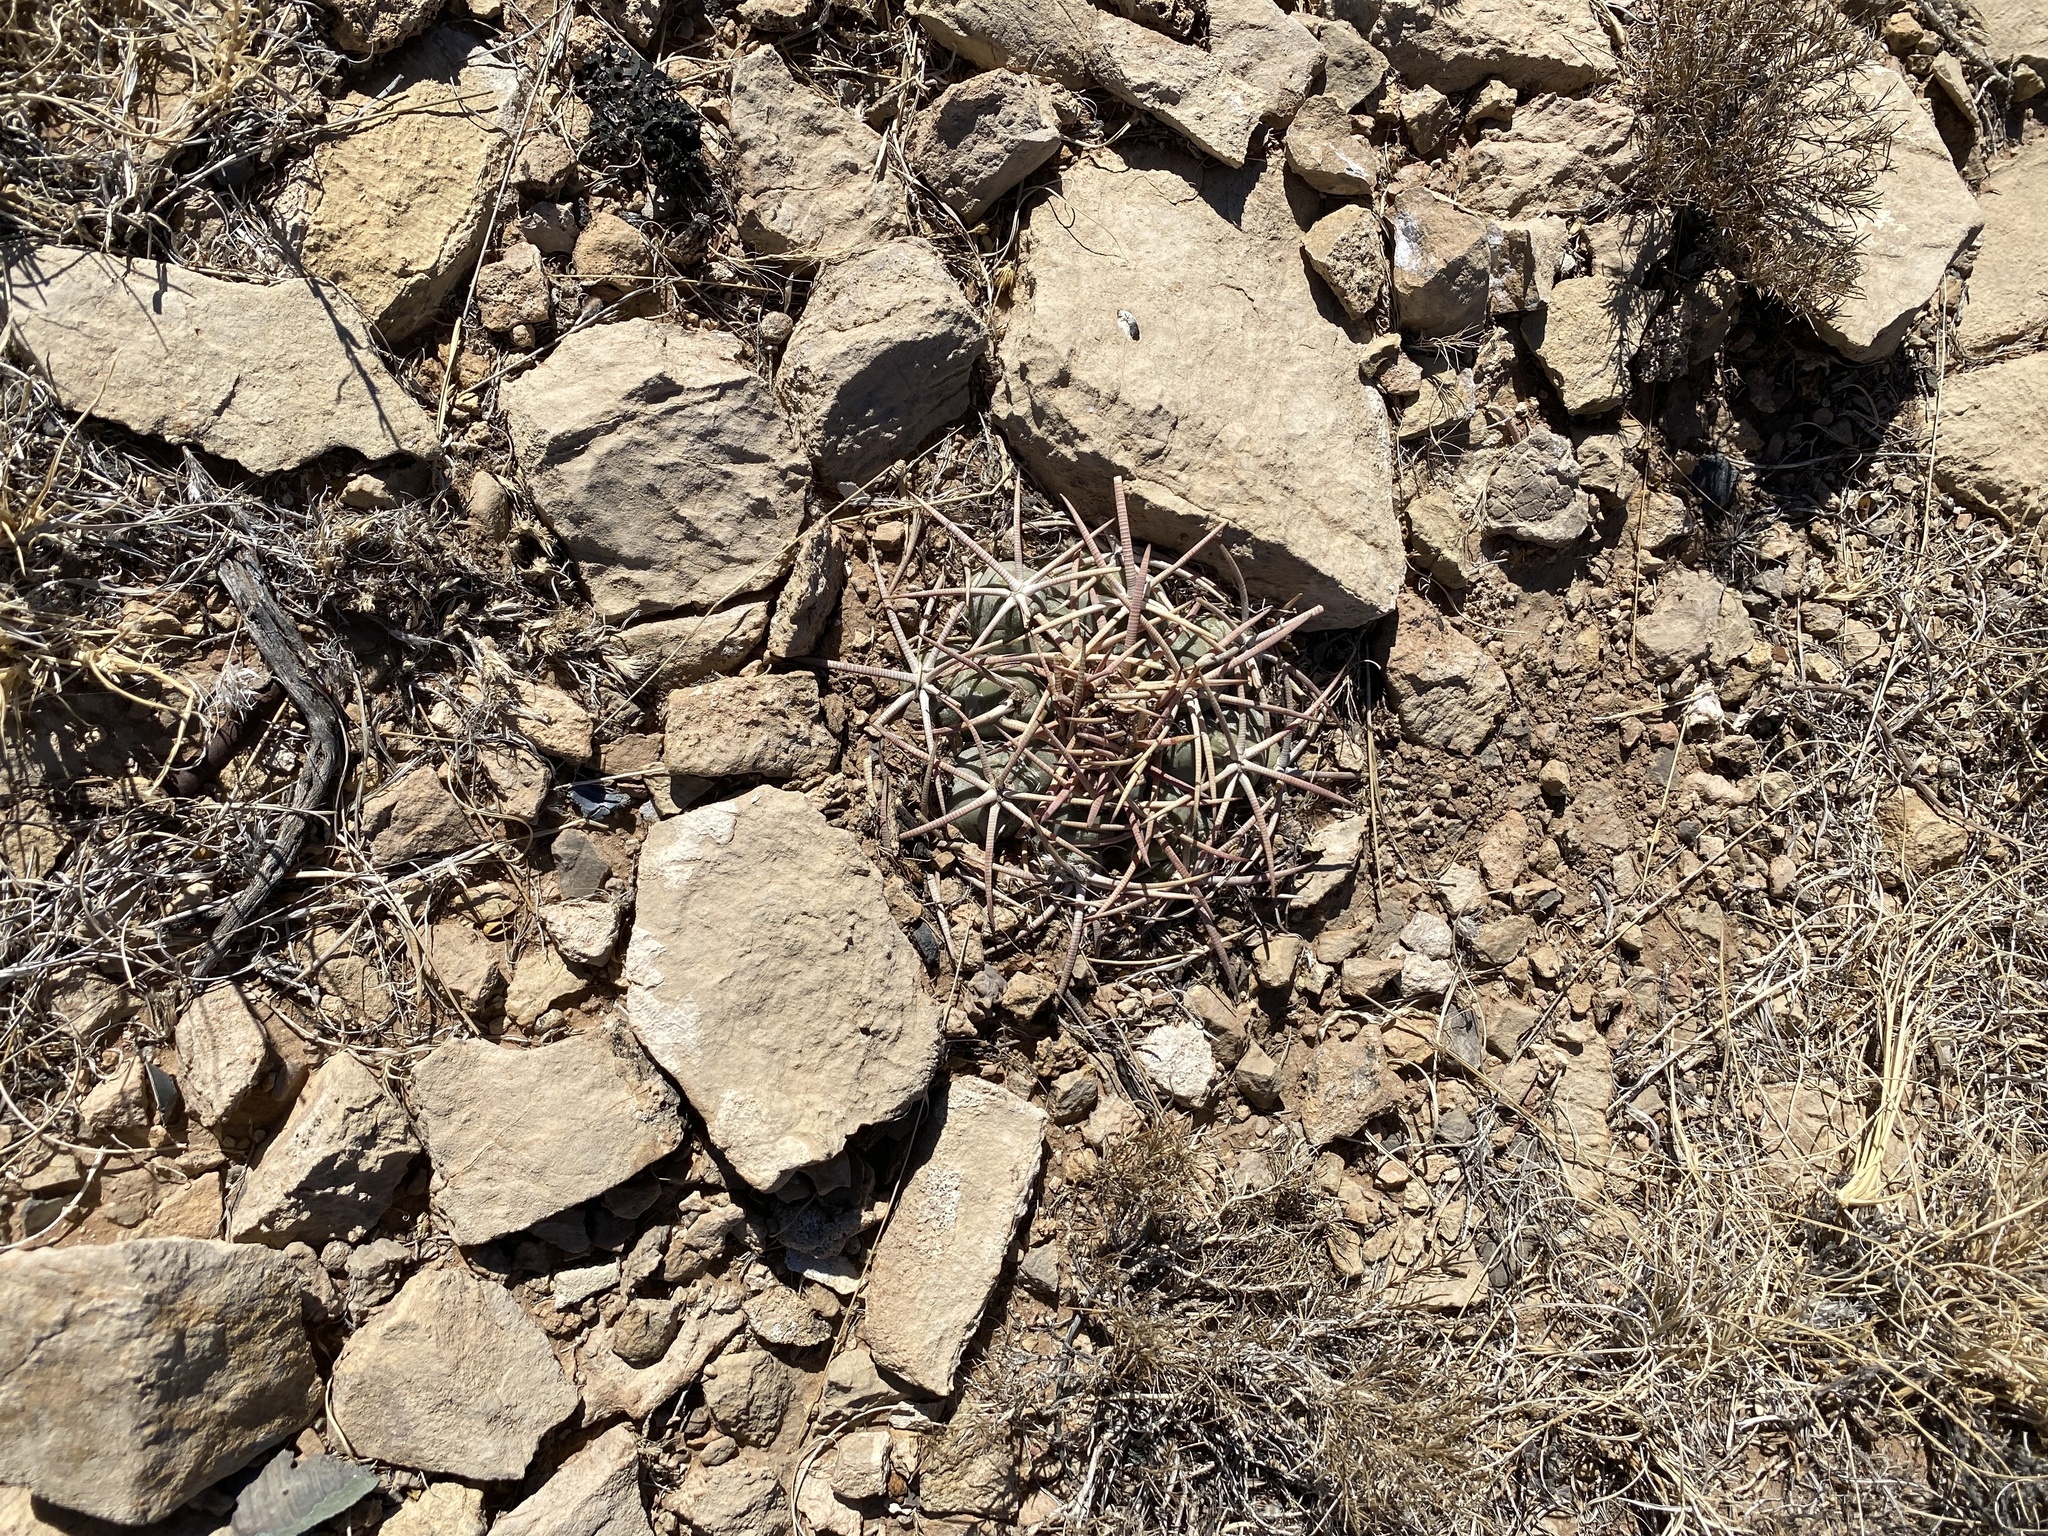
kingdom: Plantae
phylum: Tracheophyta
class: Magnoliopsida
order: Caryophyllales
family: Cactaceae
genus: Echinocactus
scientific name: Echinocactus horizonthalonius
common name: Devilshead
